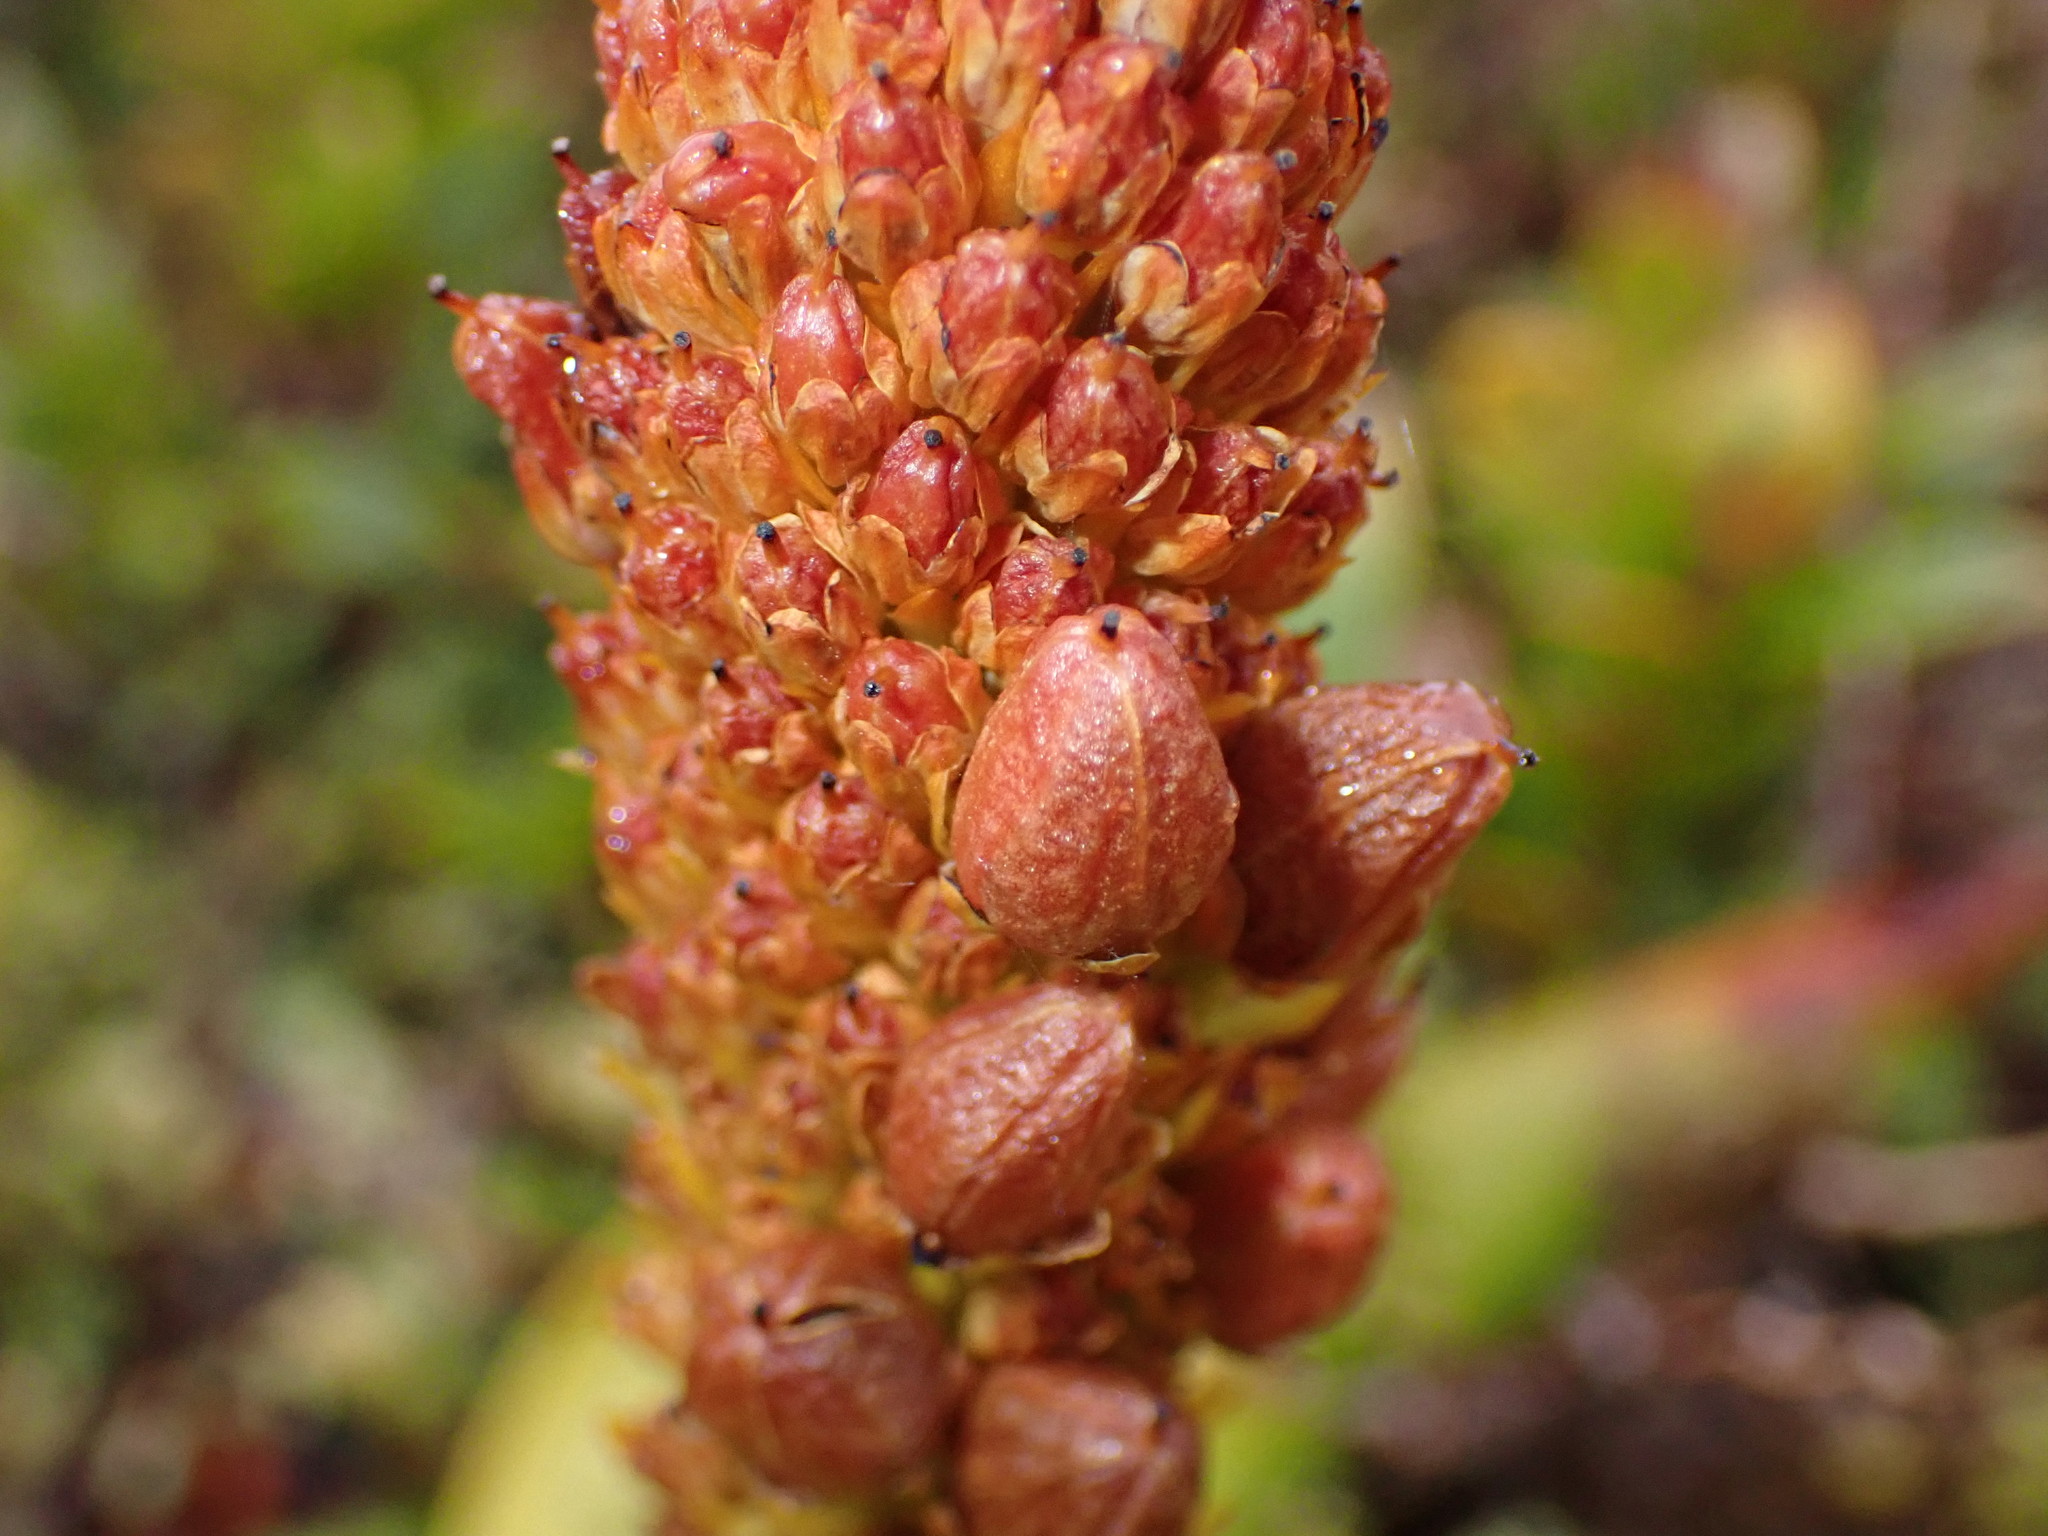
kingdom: Plantae
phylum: Tracheophyta
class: Liliopsida
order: Asparagales
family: Asphodelaceae
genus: Bulbinella
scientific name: Bulbinella rossii
